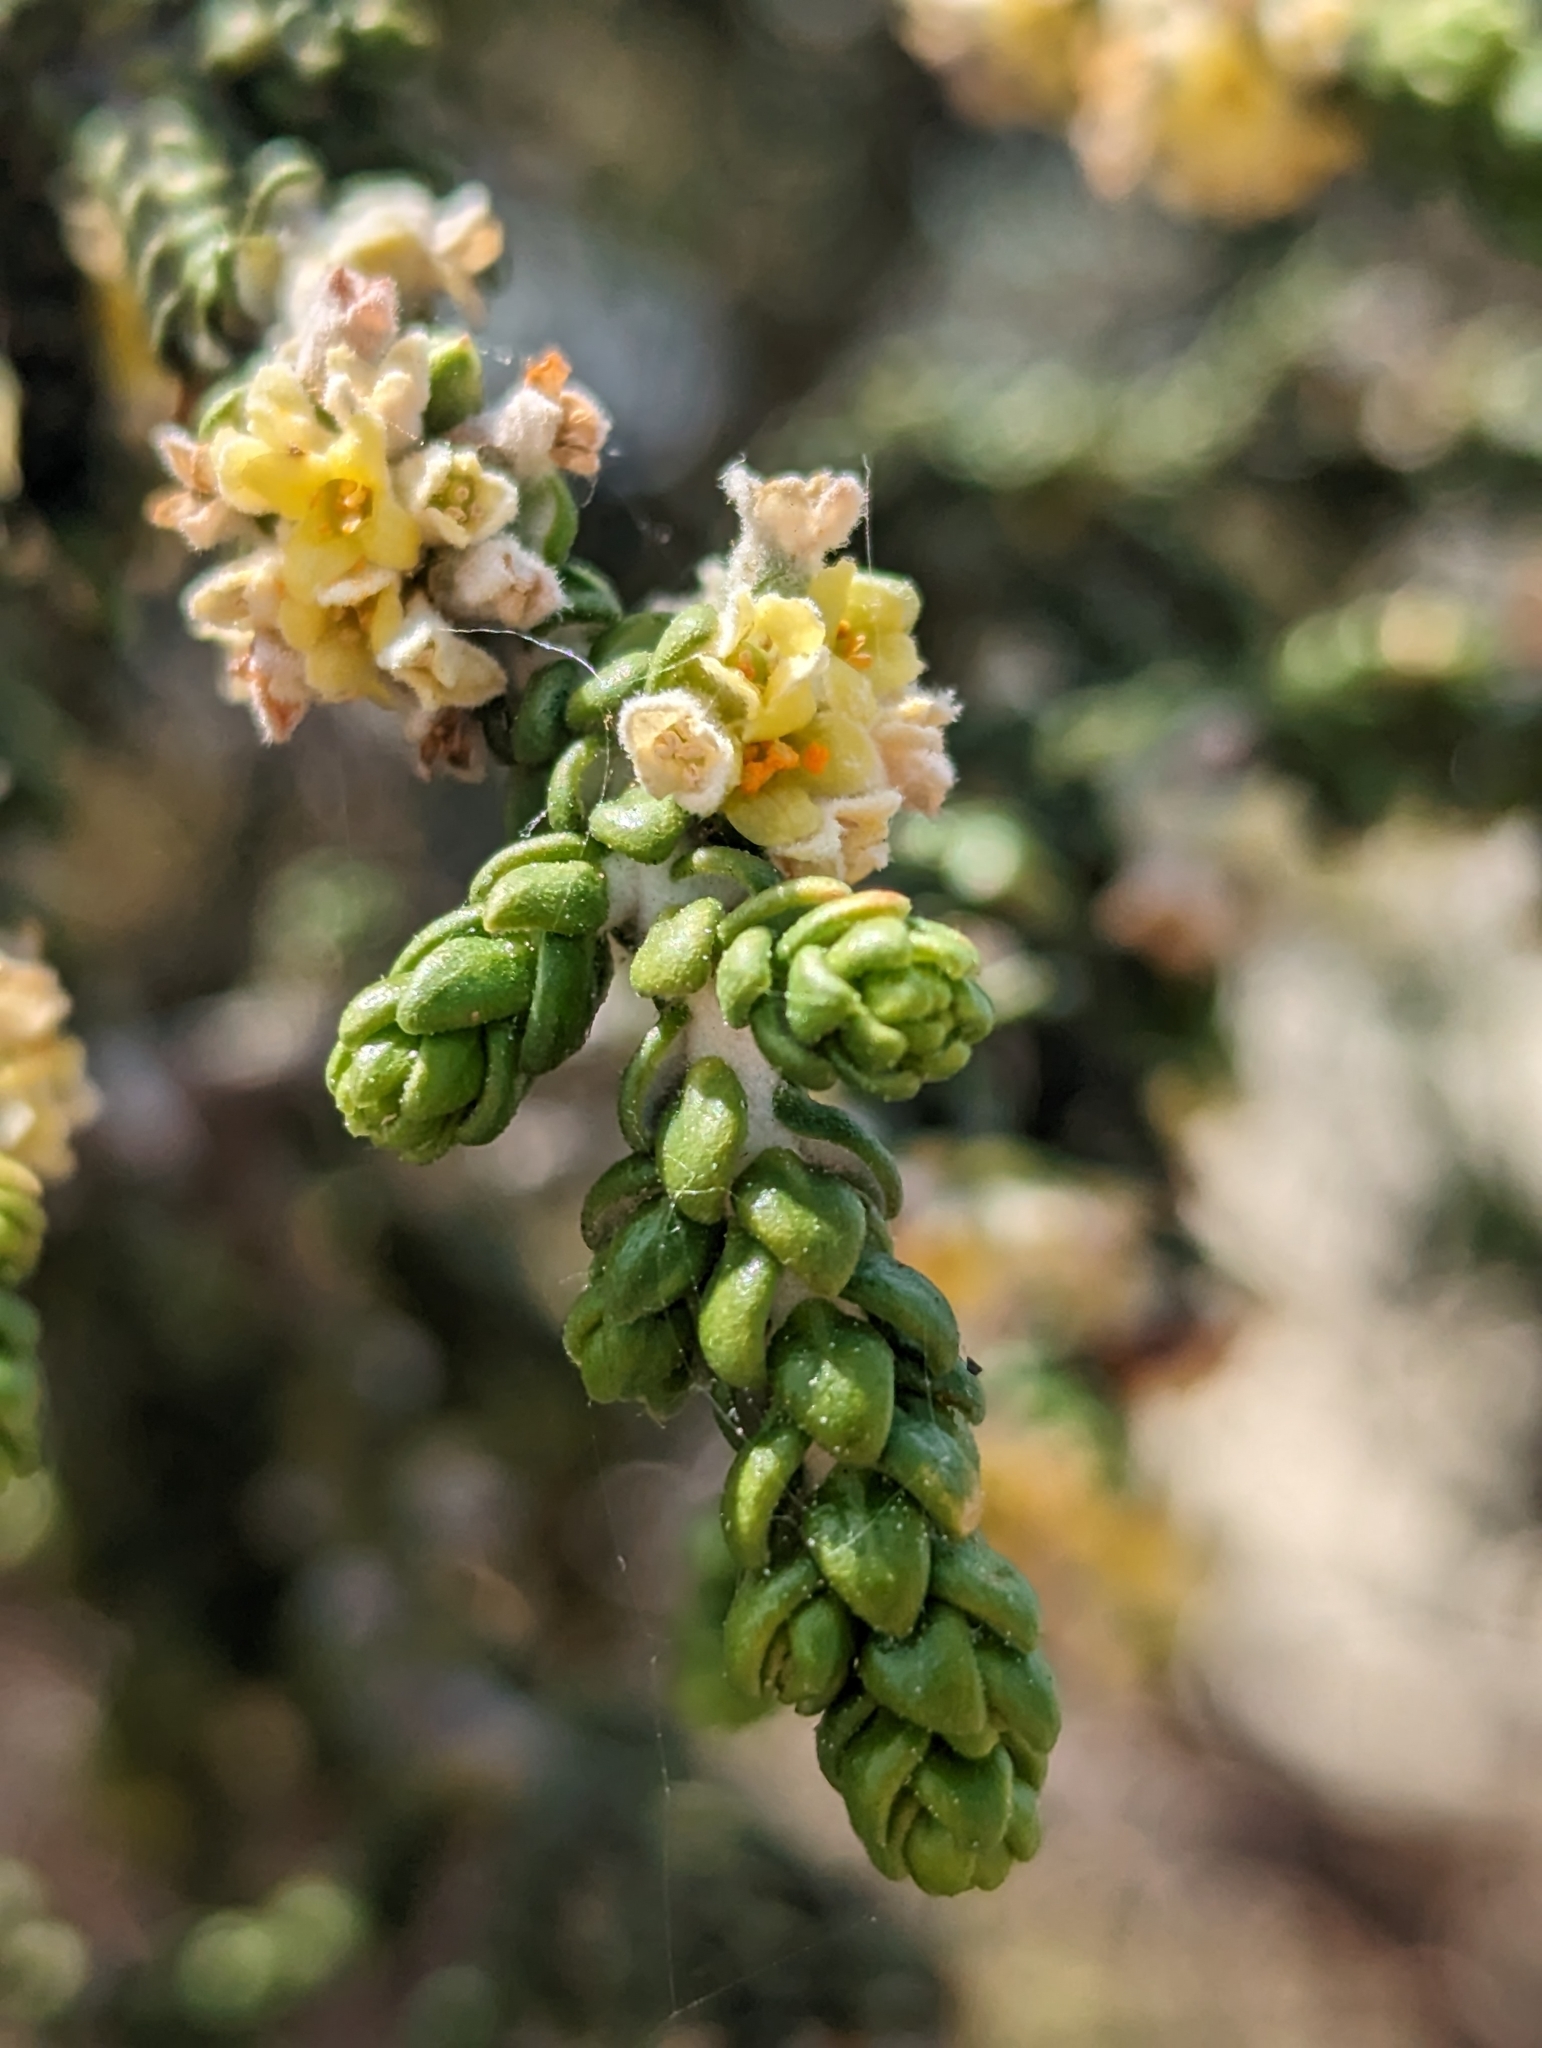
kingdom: Plantae
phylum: Tracheophyta
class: Magnoliopsida
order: Malvales
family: Thymelaeaceae
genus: Thymelaea
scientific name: Thymelaea hirsuta
